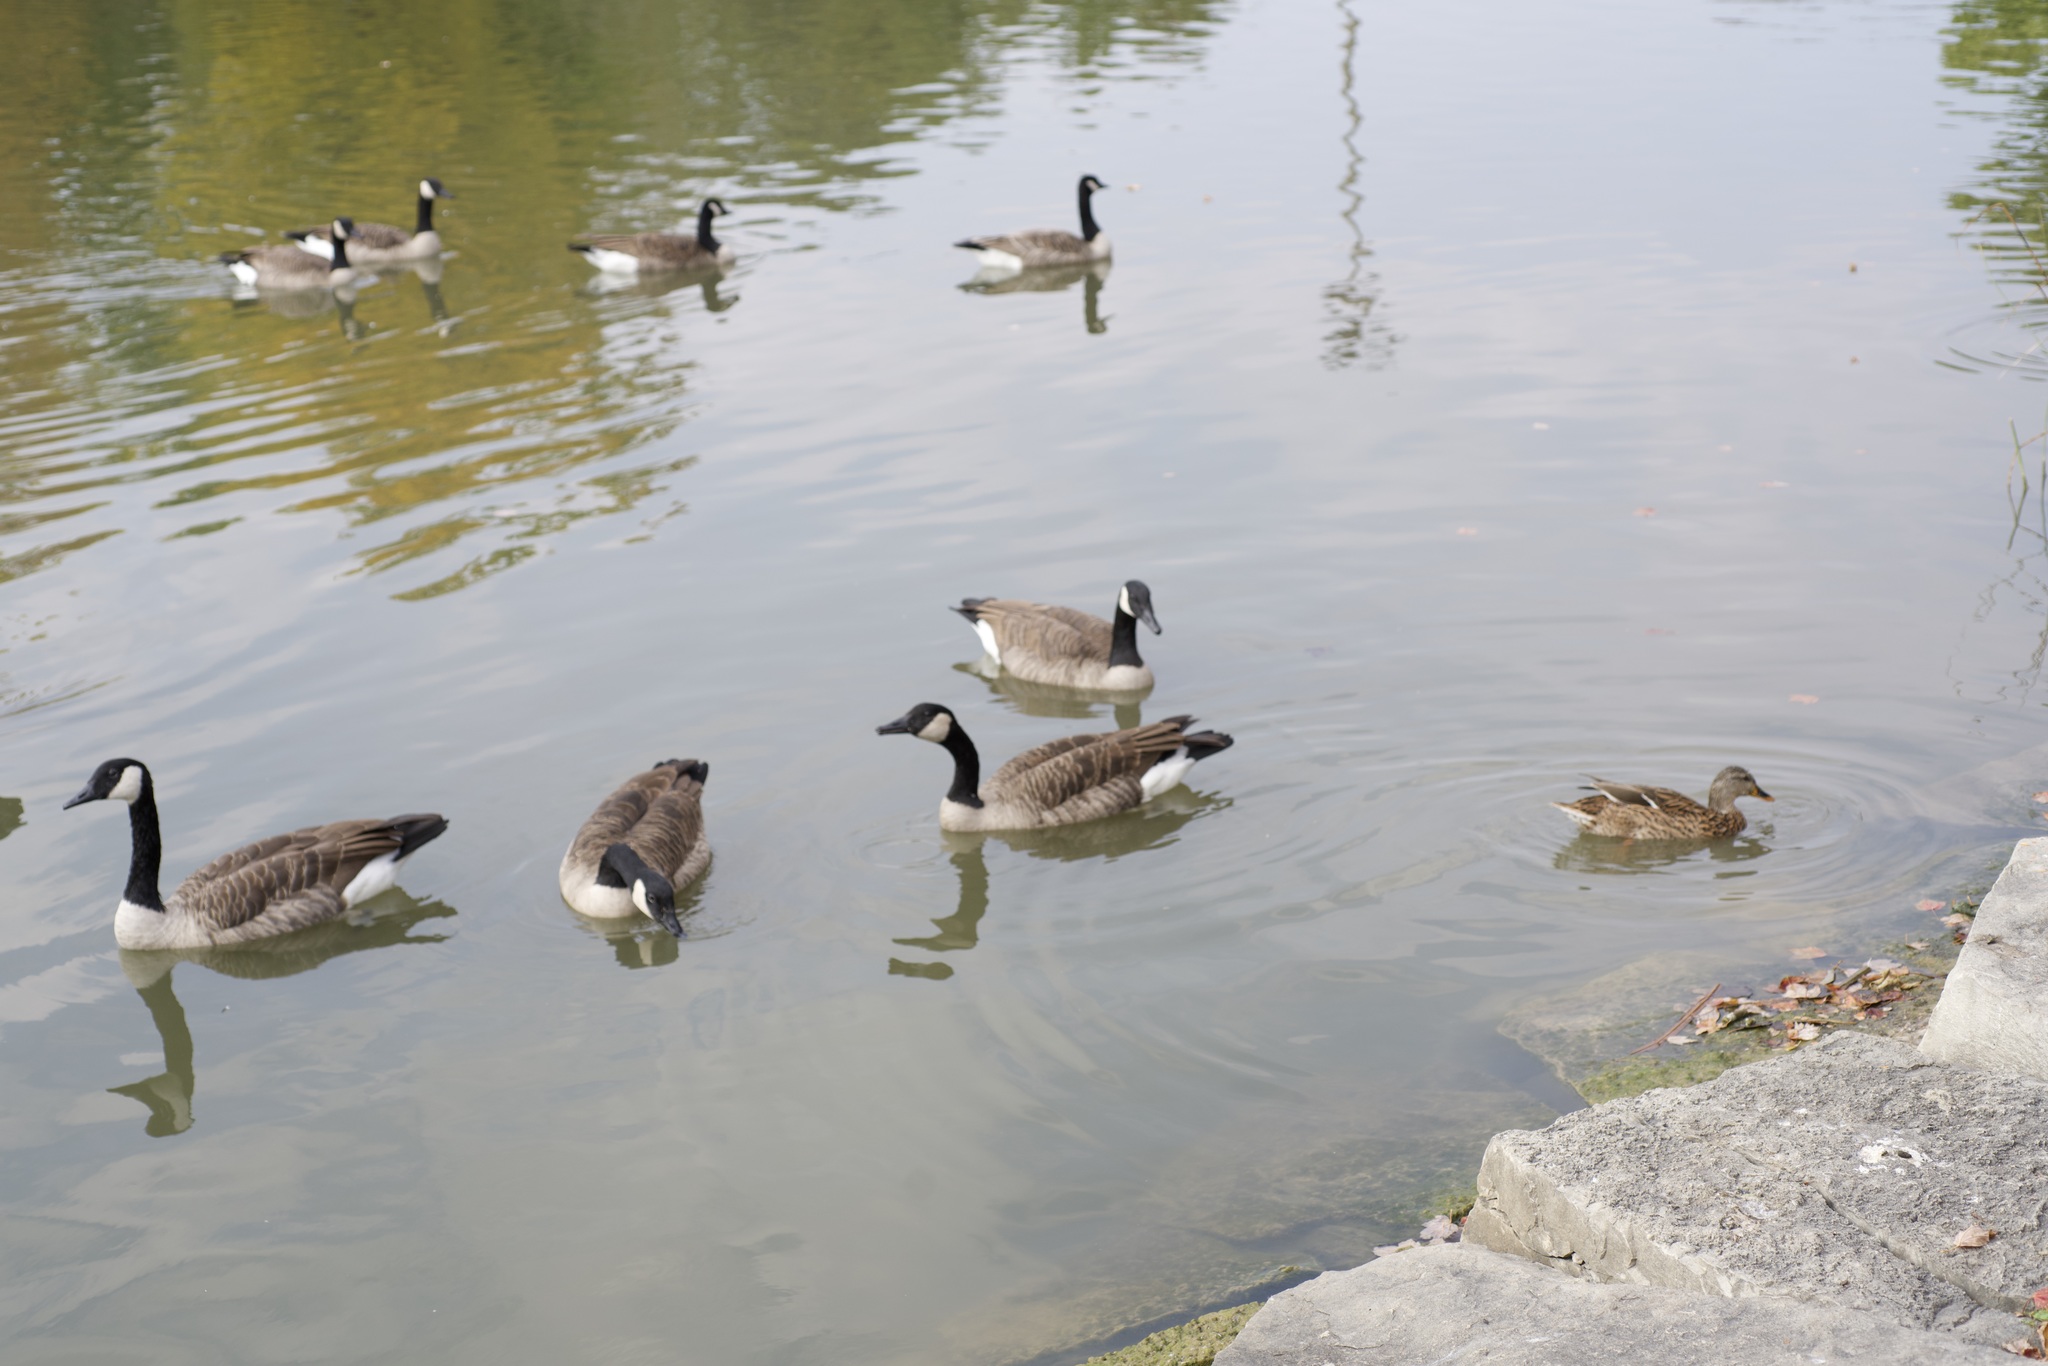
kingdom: Animalia
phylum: Chordata
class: Aves
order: Anseriformes
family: Anatidae
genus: Branta
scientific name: Branta canadensis
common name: Canada goose
